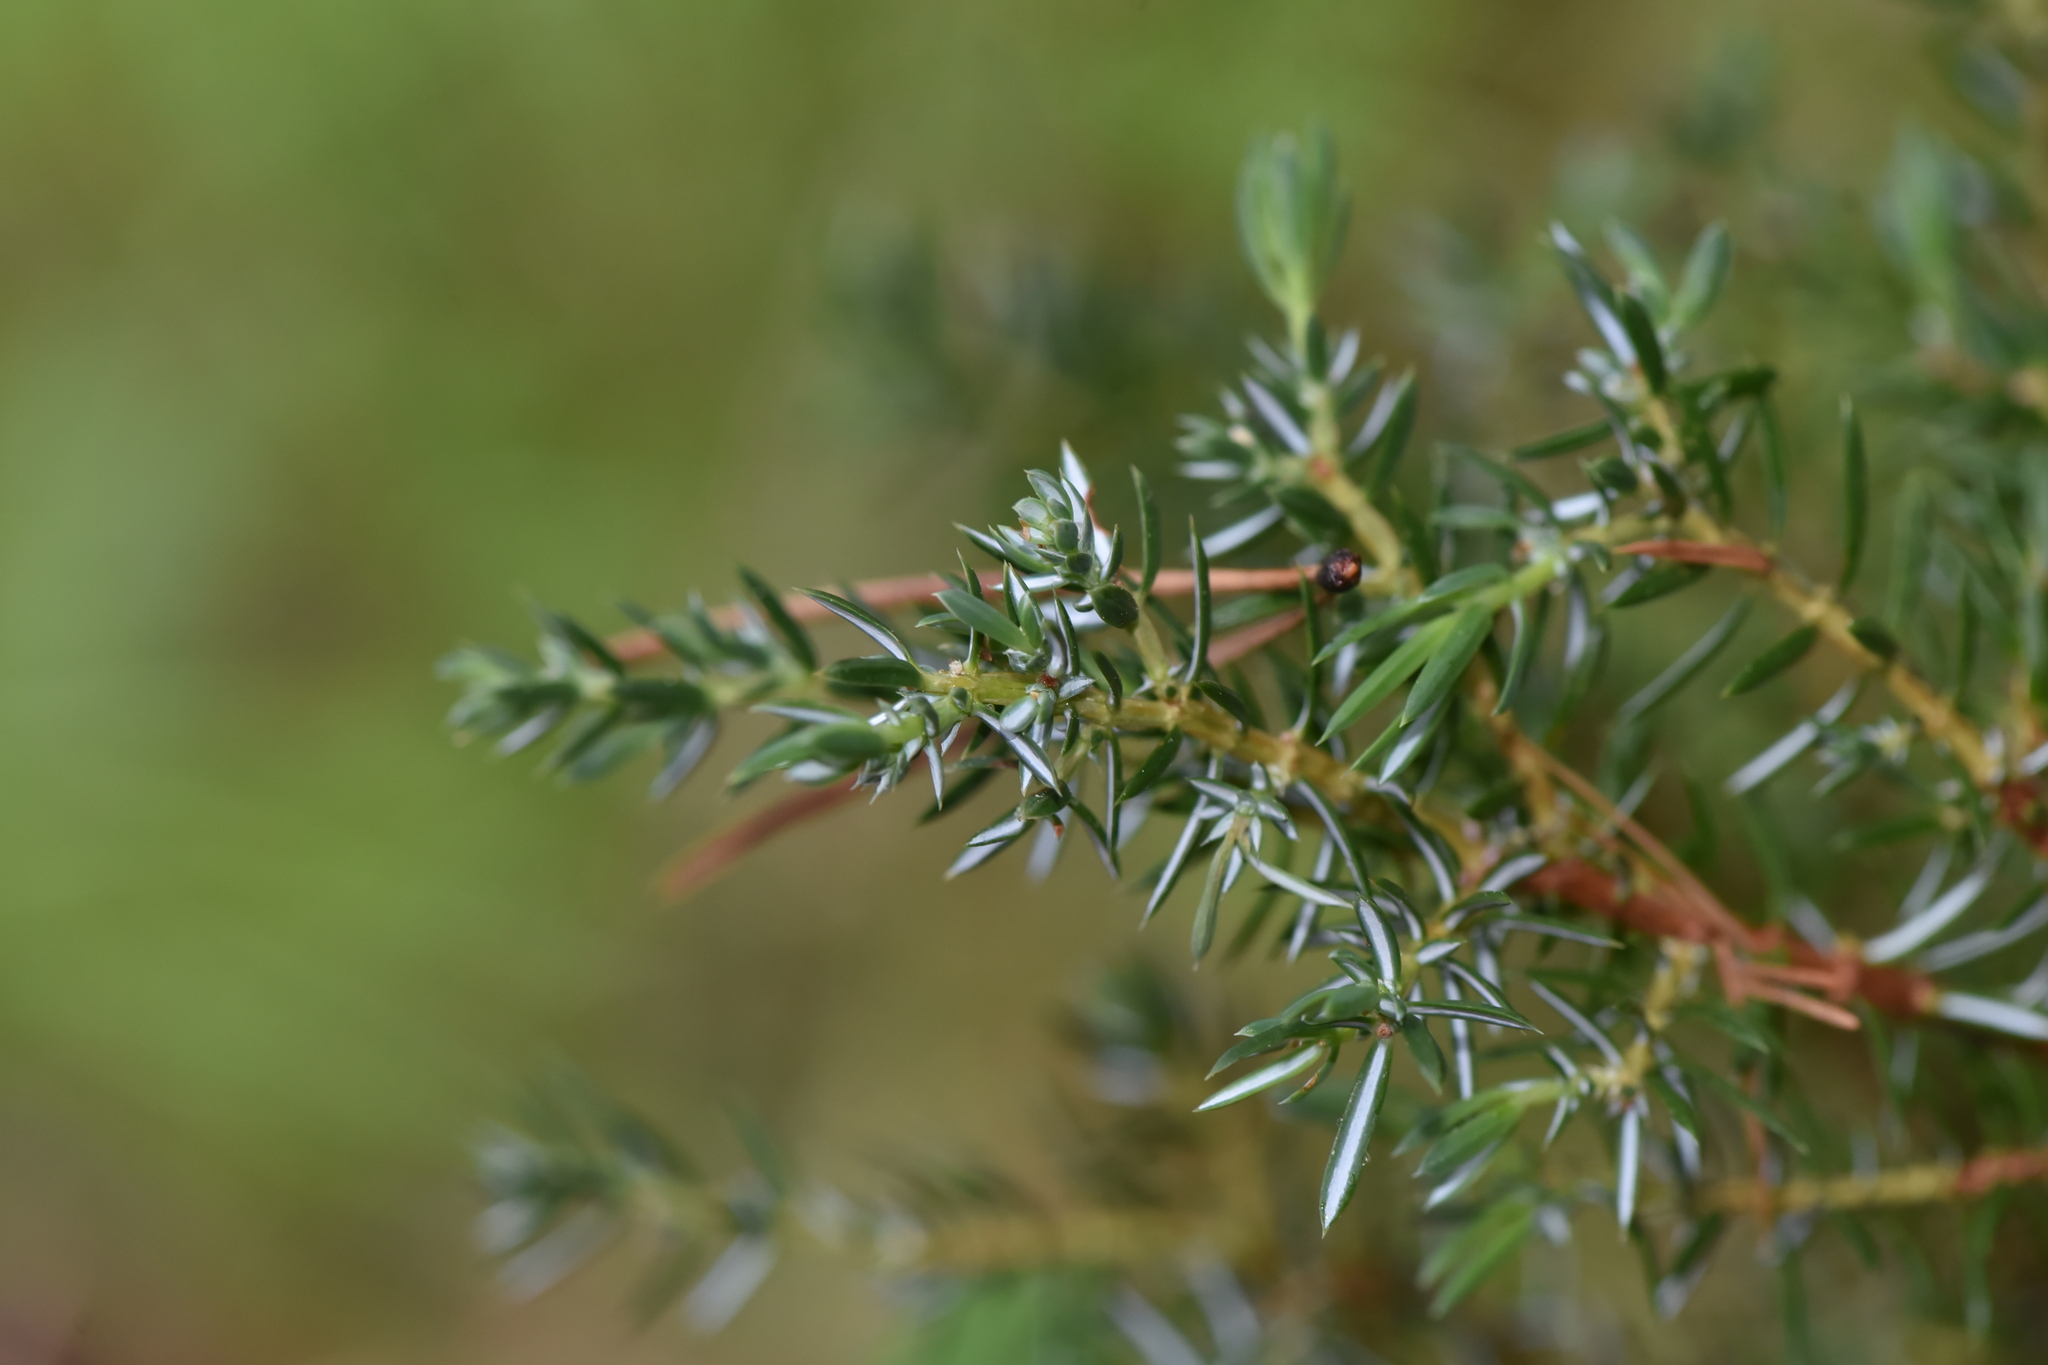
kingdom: Plantae
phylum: Tracheophyta
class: Pinopsida
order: Pinales
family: Cupressaceae
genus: Juniperus
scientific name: Juniperus communis
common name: Common juniper
